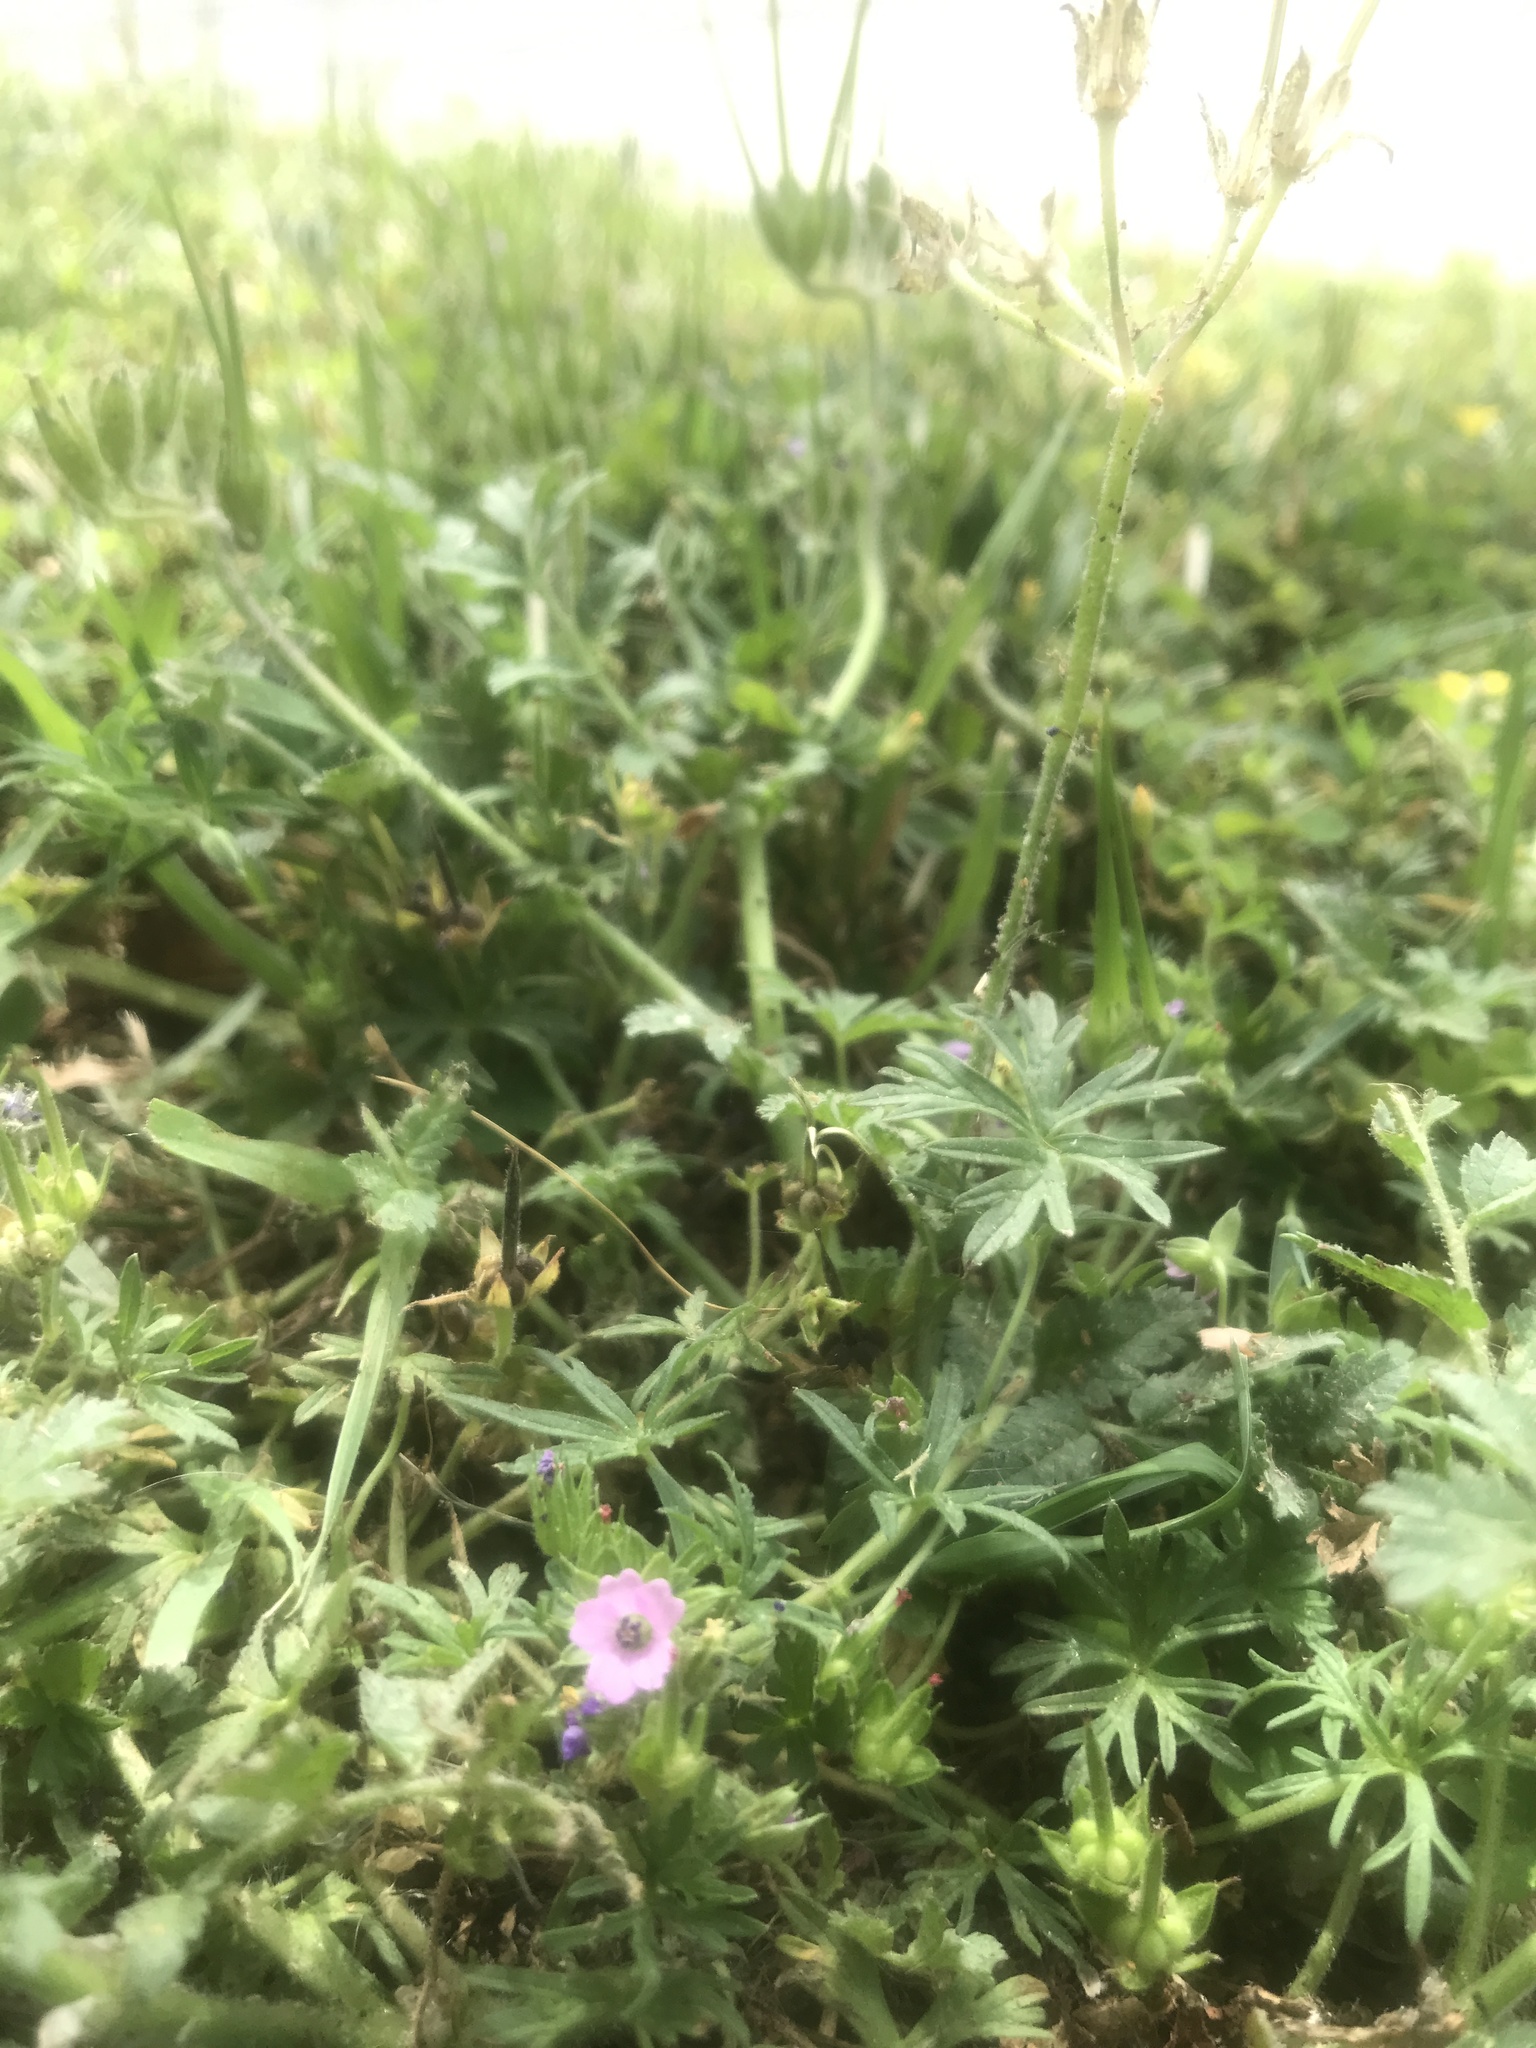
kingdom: Plantae
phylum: Tracheophyta
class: Magnoliopsida
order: Geraniales
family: Geraniaceae
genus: Geranium
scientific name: Geranium dissectum
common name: Cut-leaved crane's-bill
